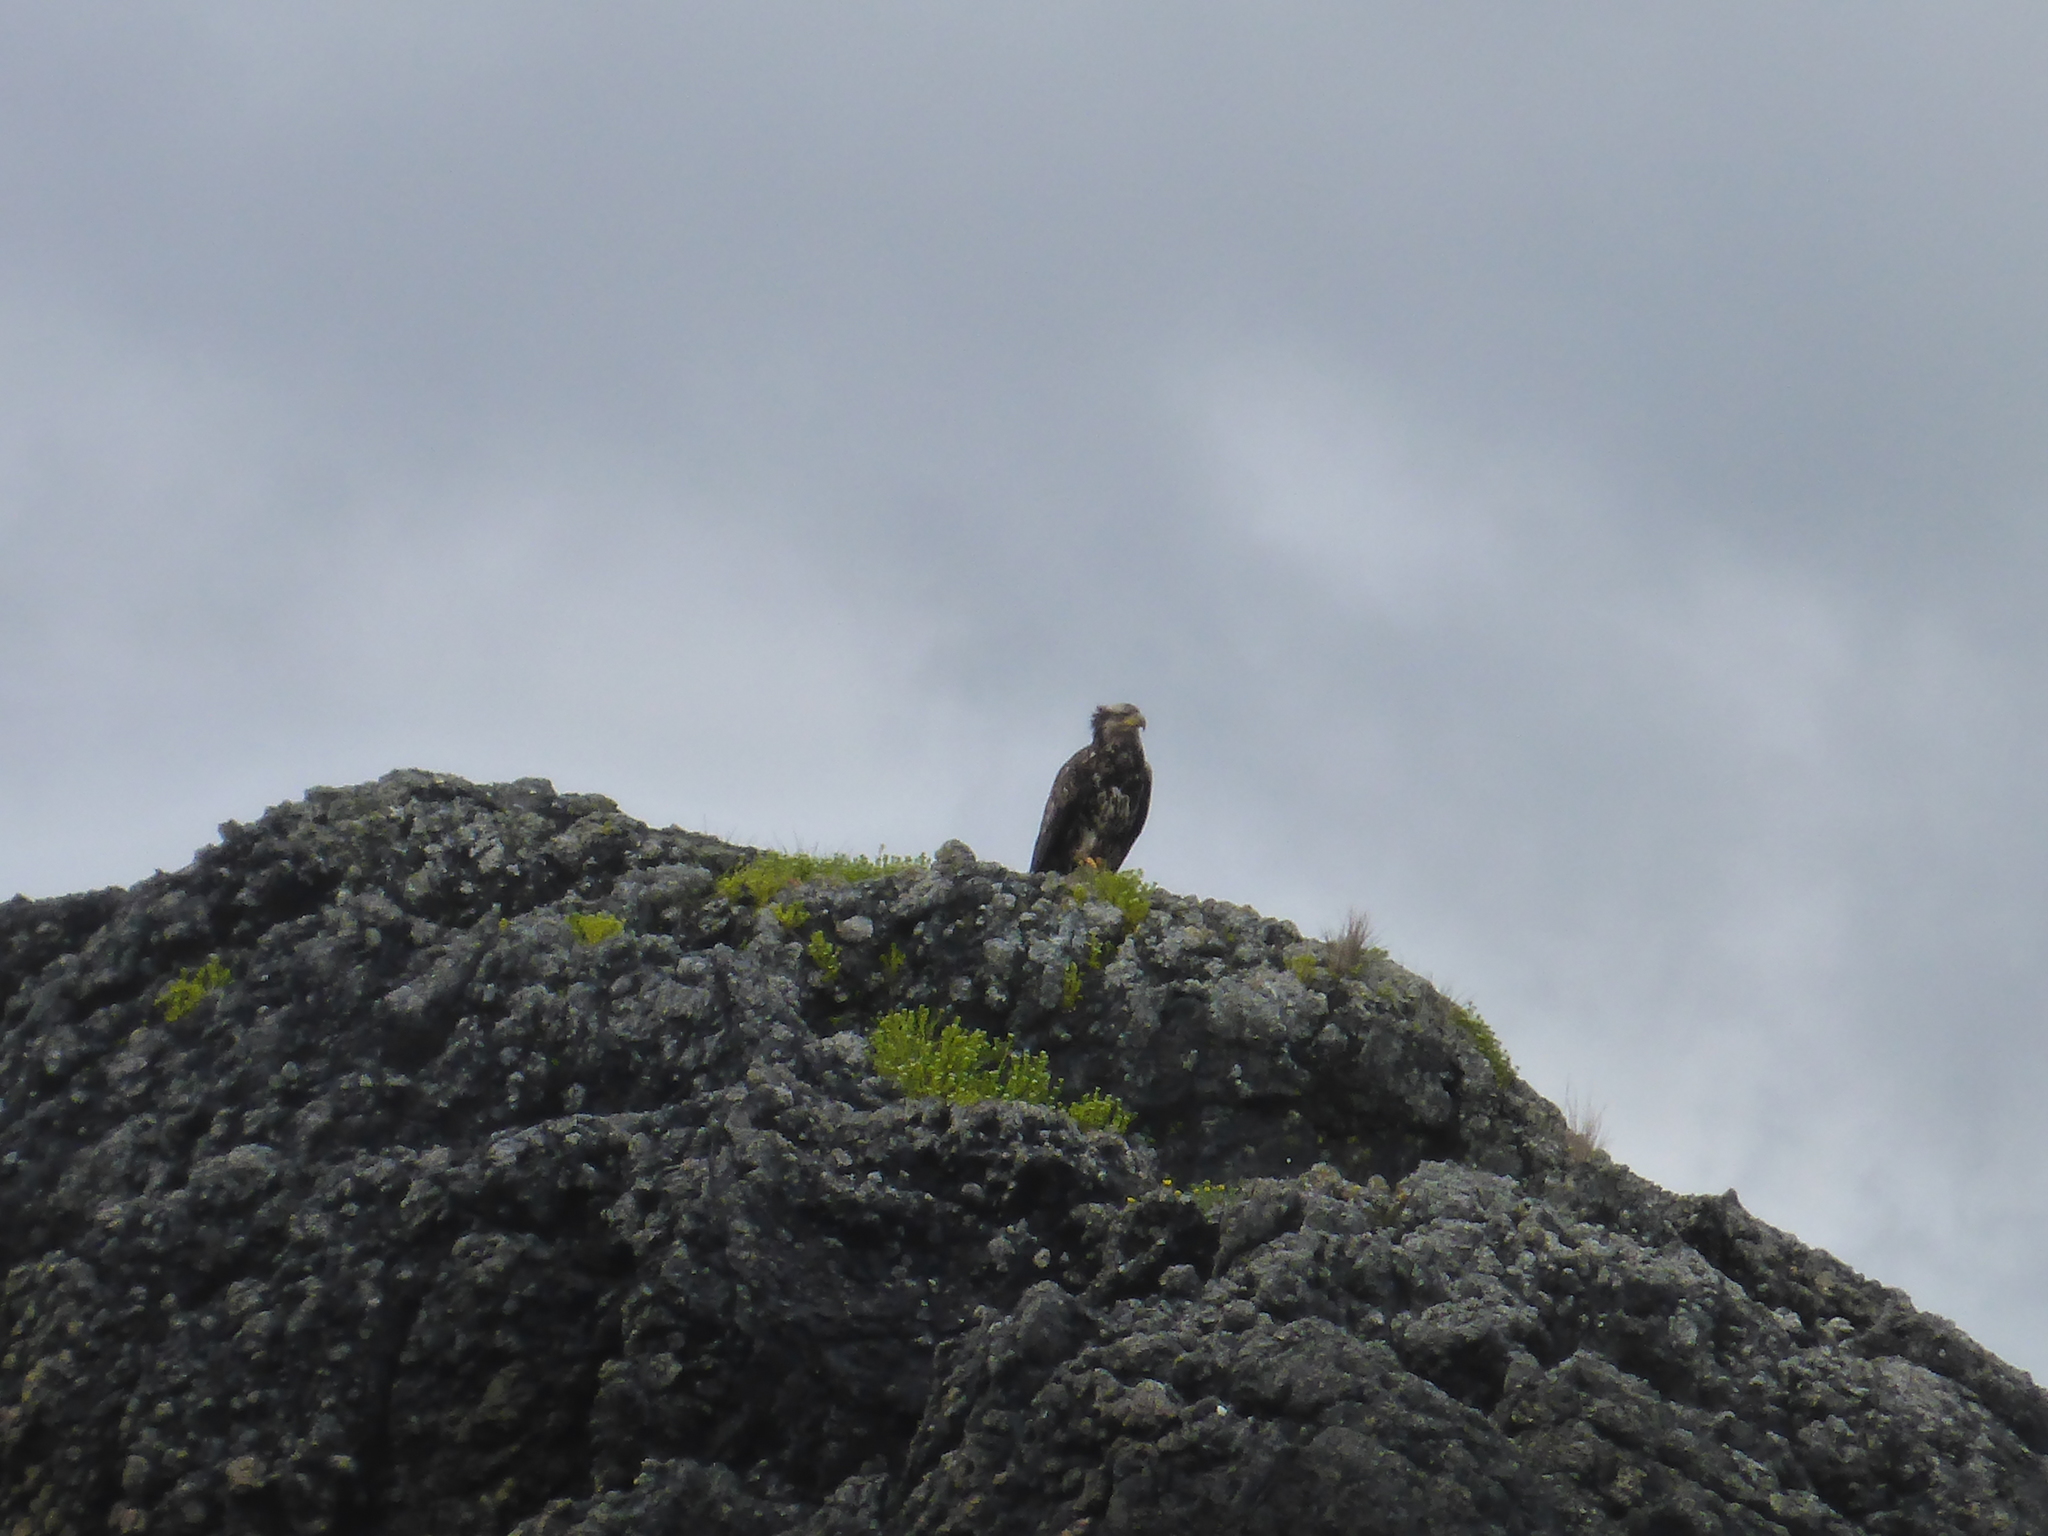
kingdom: Animalia
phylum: Chordata
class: Aves
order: Accipitriformes
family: Accipitridae
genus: Haliaeetus
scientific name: Haliaeetus leucocephalus
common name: Bald eagle
